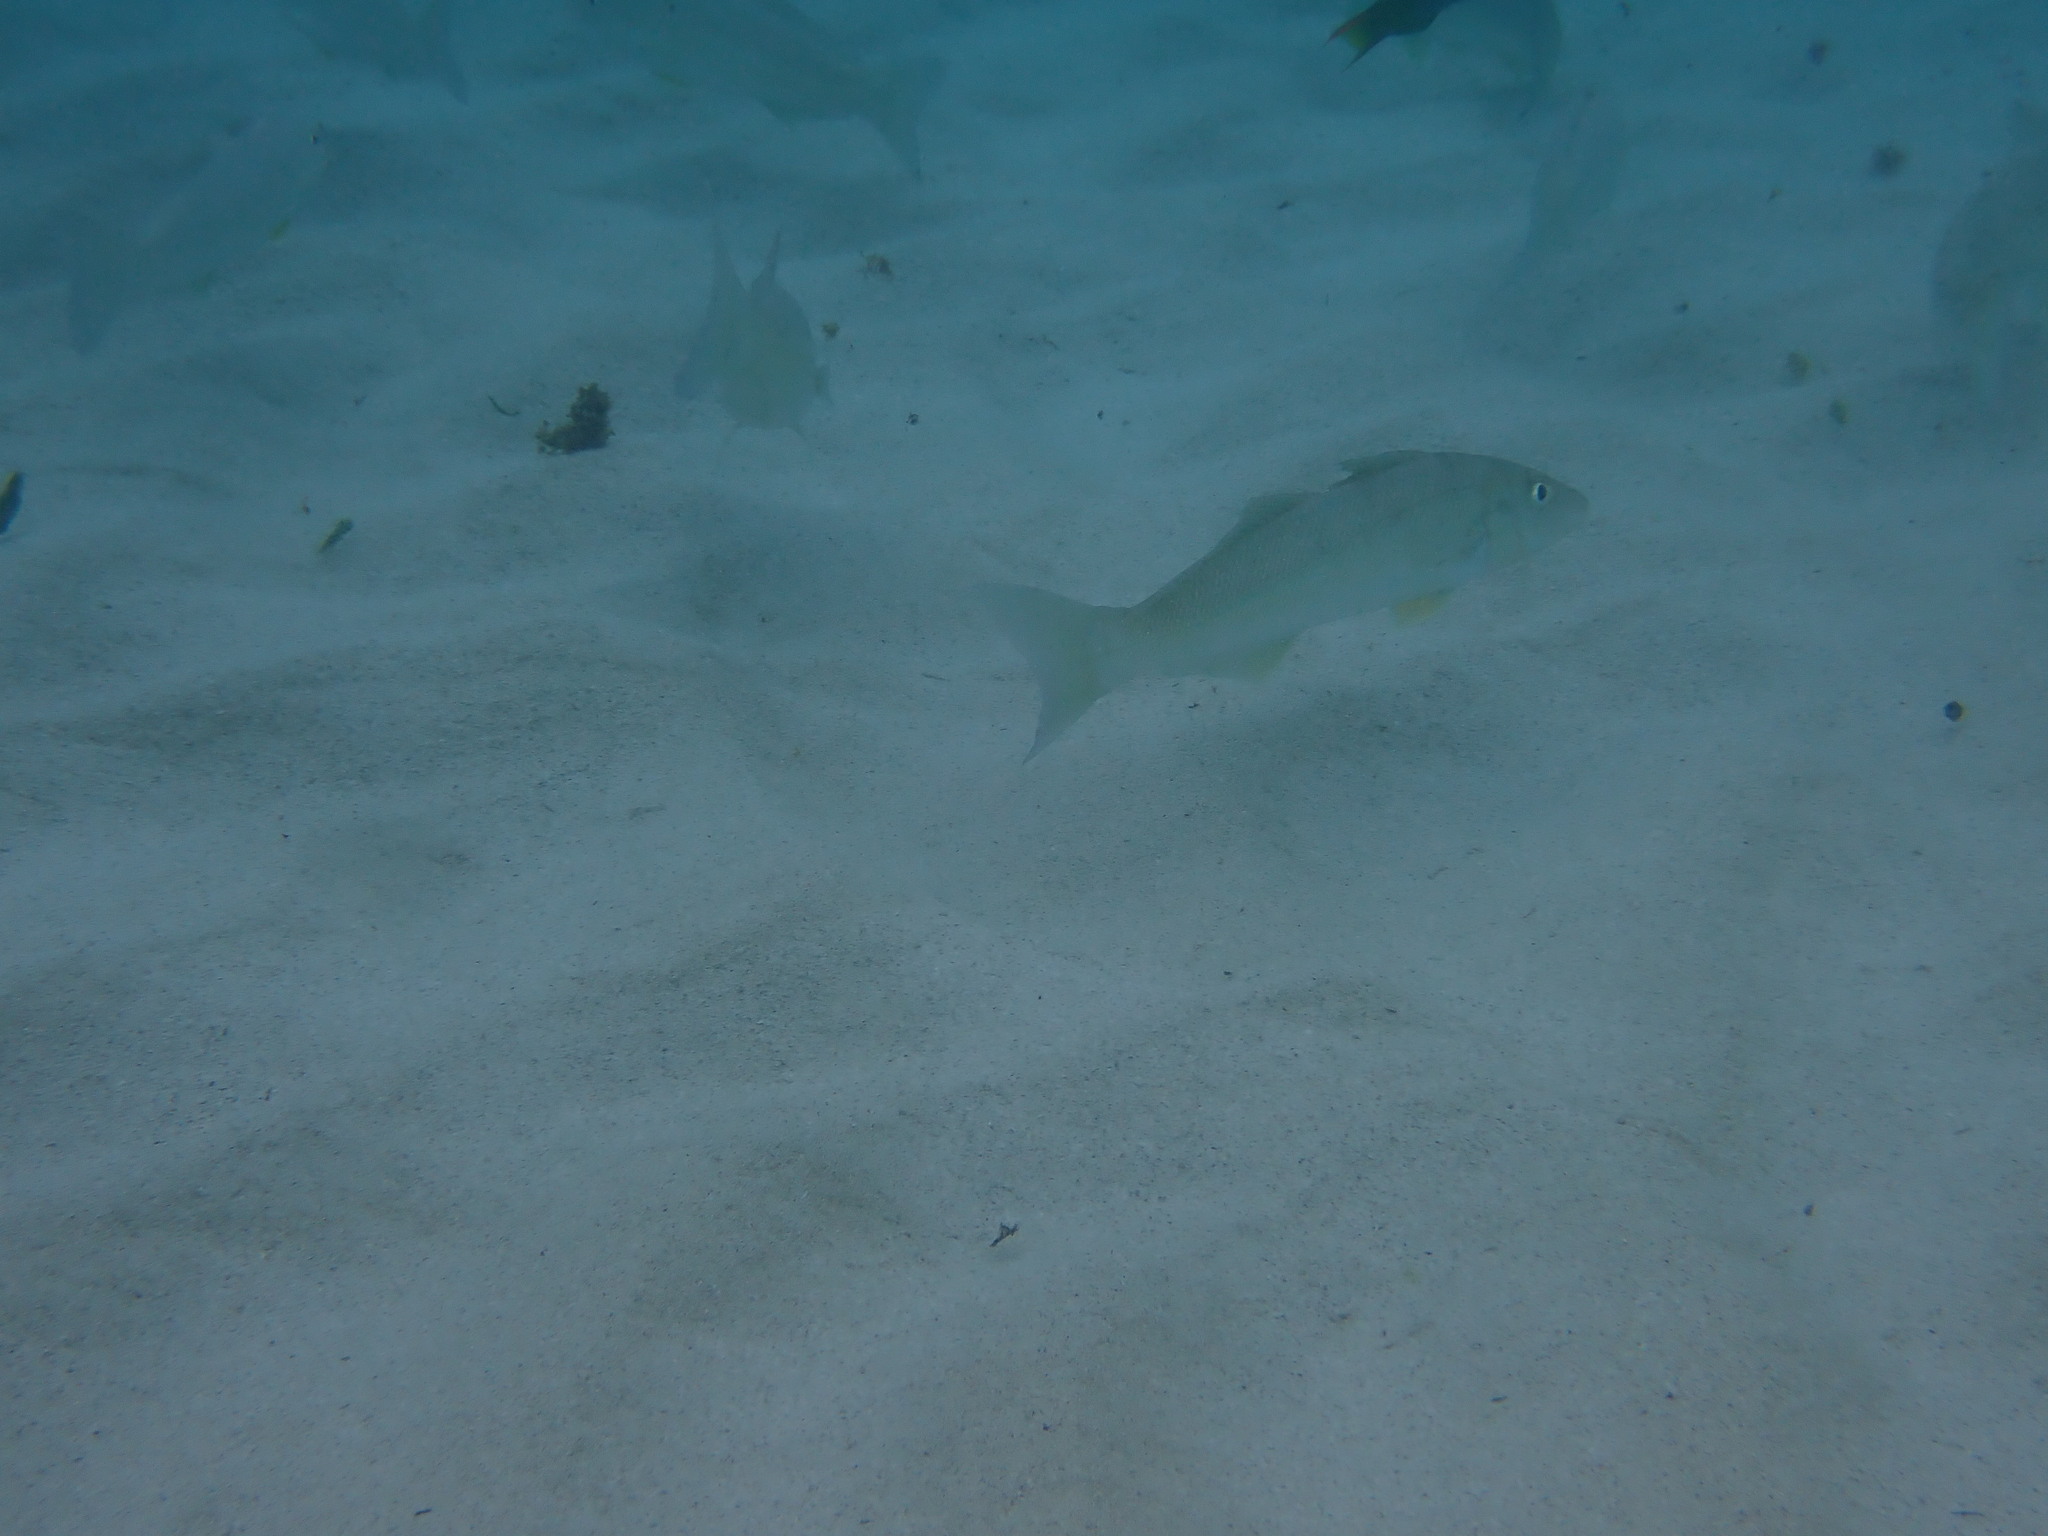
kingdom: Animalia
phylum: Chordata
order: Perciformes
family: Sillaginidae
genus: Sillago
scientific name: Sillago ciliata
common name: Sand sillago
